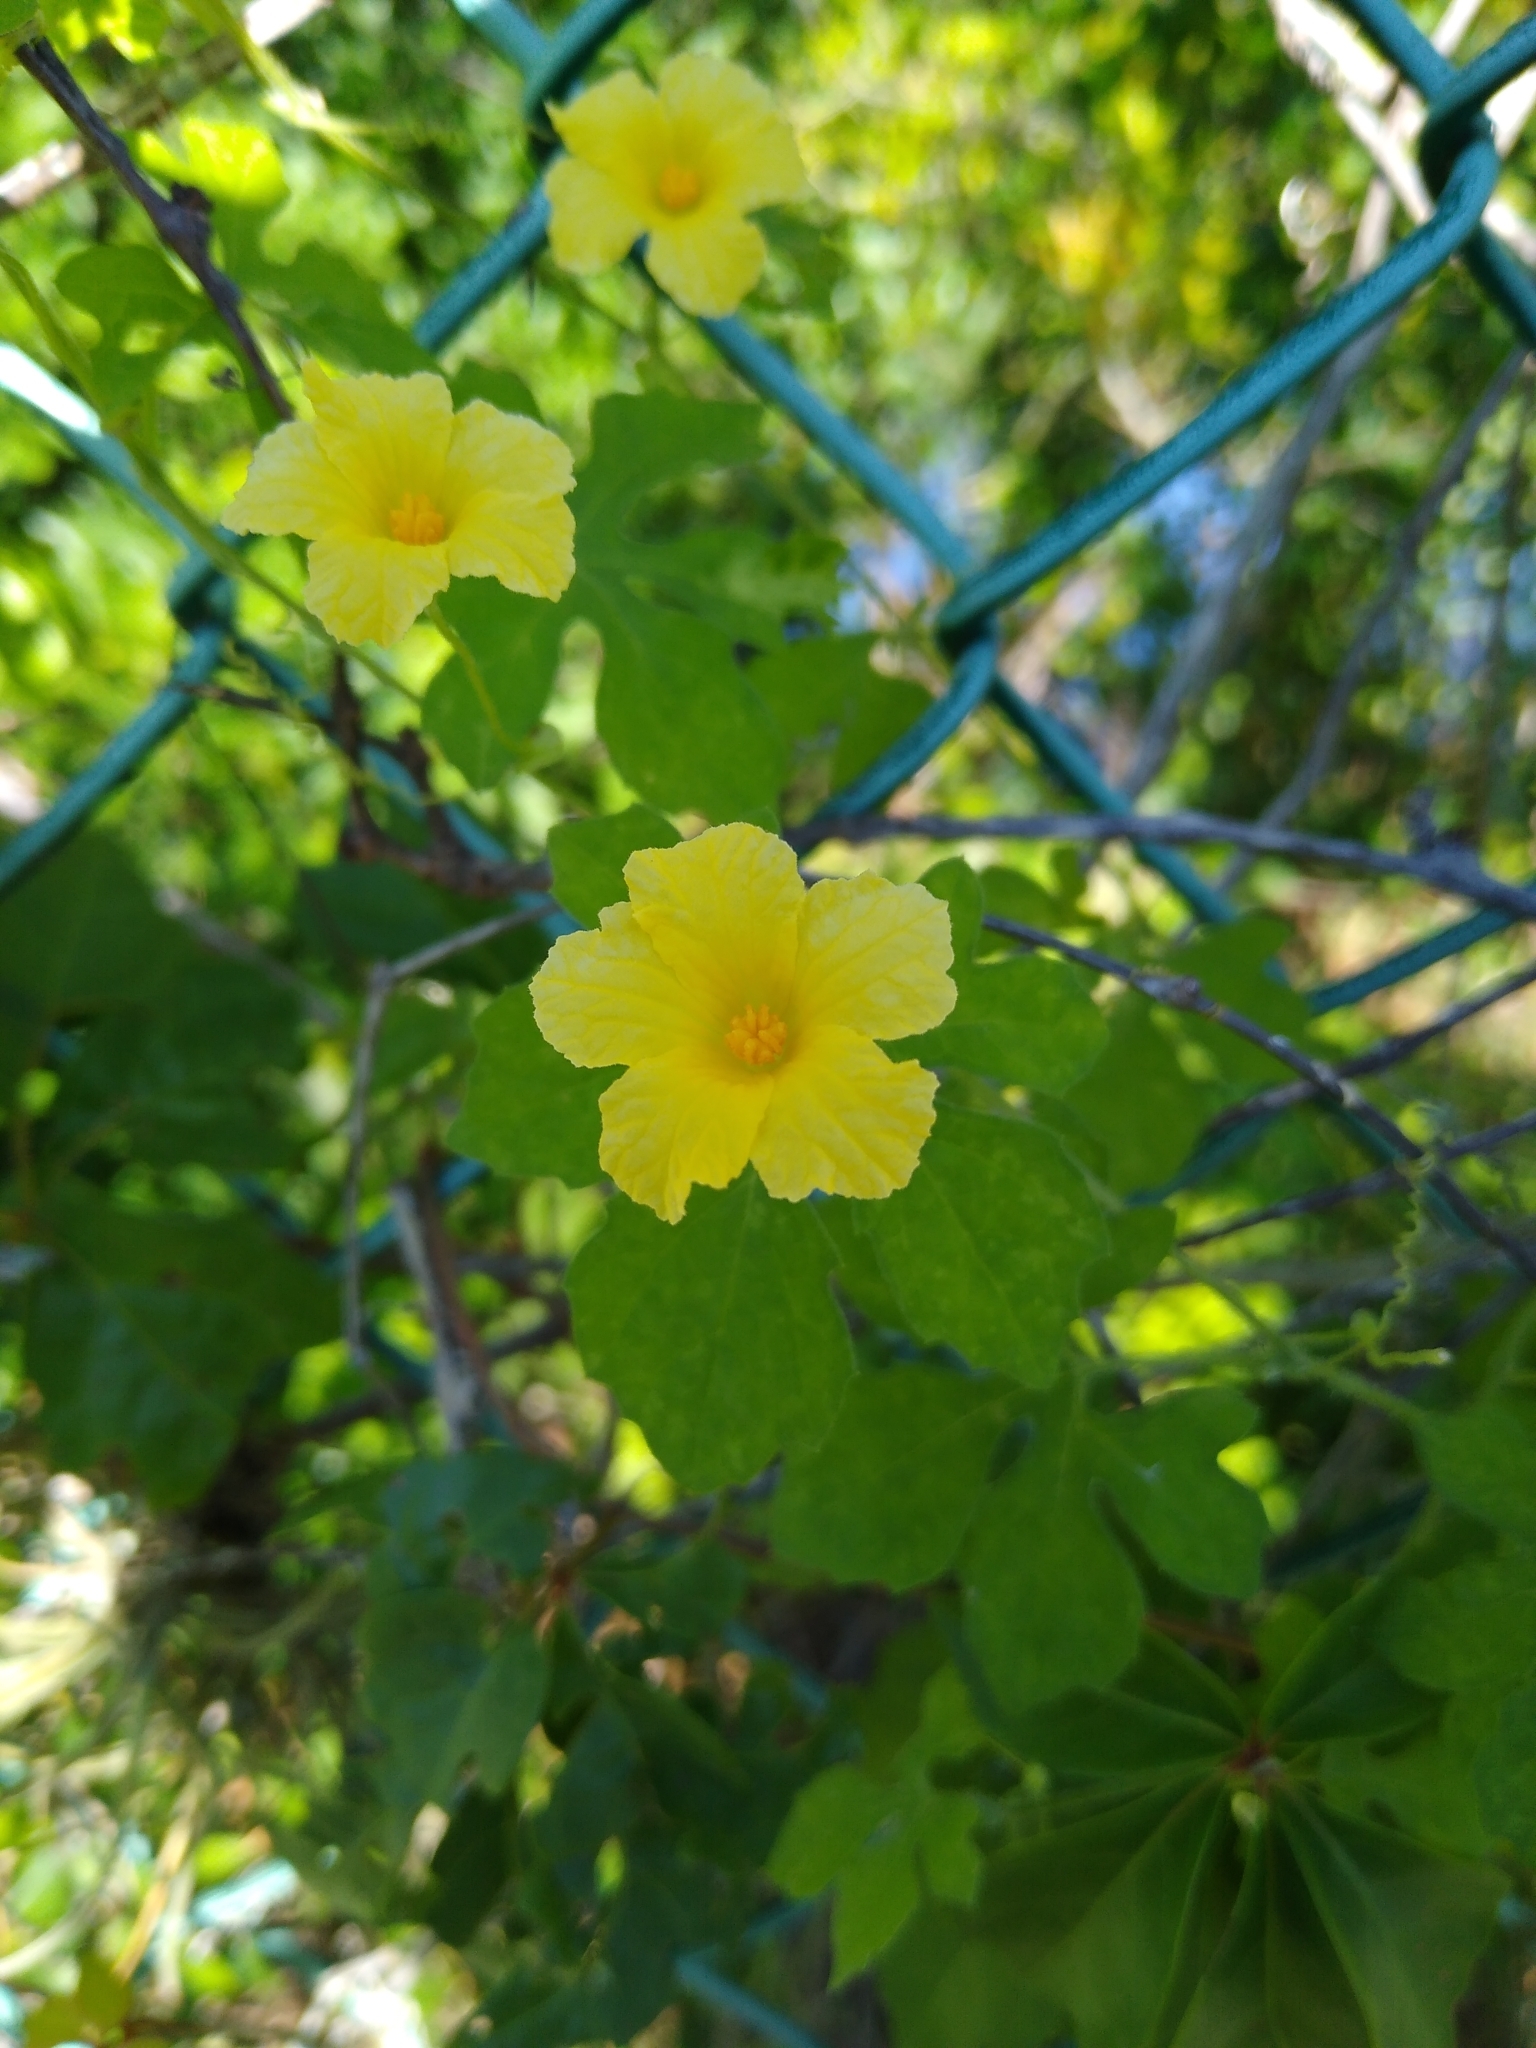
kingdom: Plantae
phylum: Tracheophyta
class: Magnoliopsida
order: Cucurbitales
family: Cucurbitaceae
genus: Momordica
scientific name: Momordica charantia
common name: Balsampear
